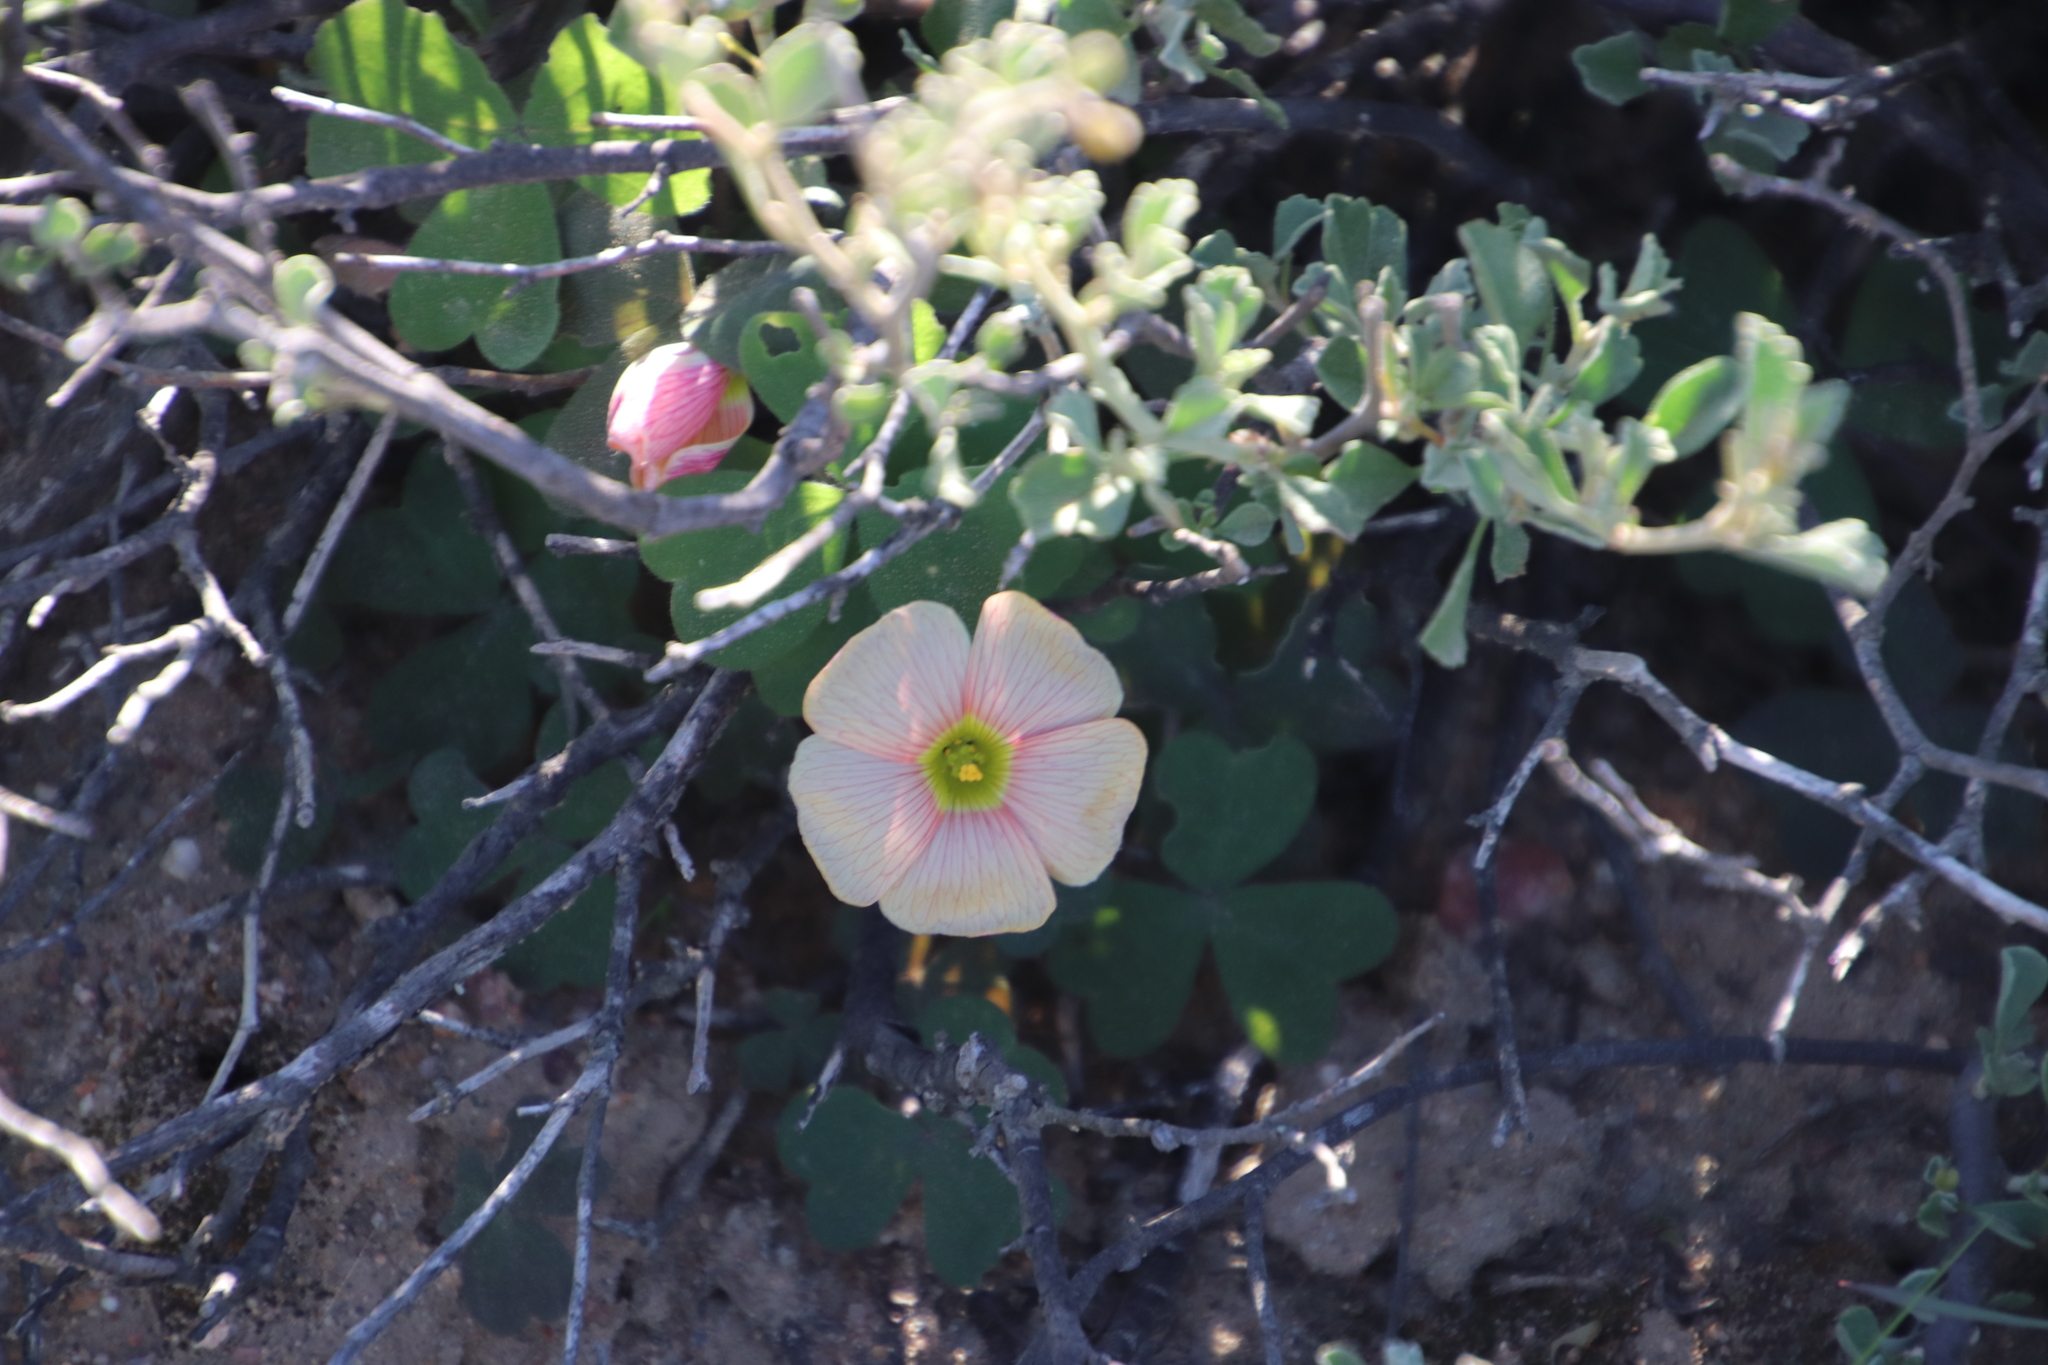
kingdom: Plantae
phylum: Tracheophyta
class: Magnoliopsida
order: Oxalidales
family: Oxalidaceae
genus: Oxalis
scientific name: Oxalis obtusa
